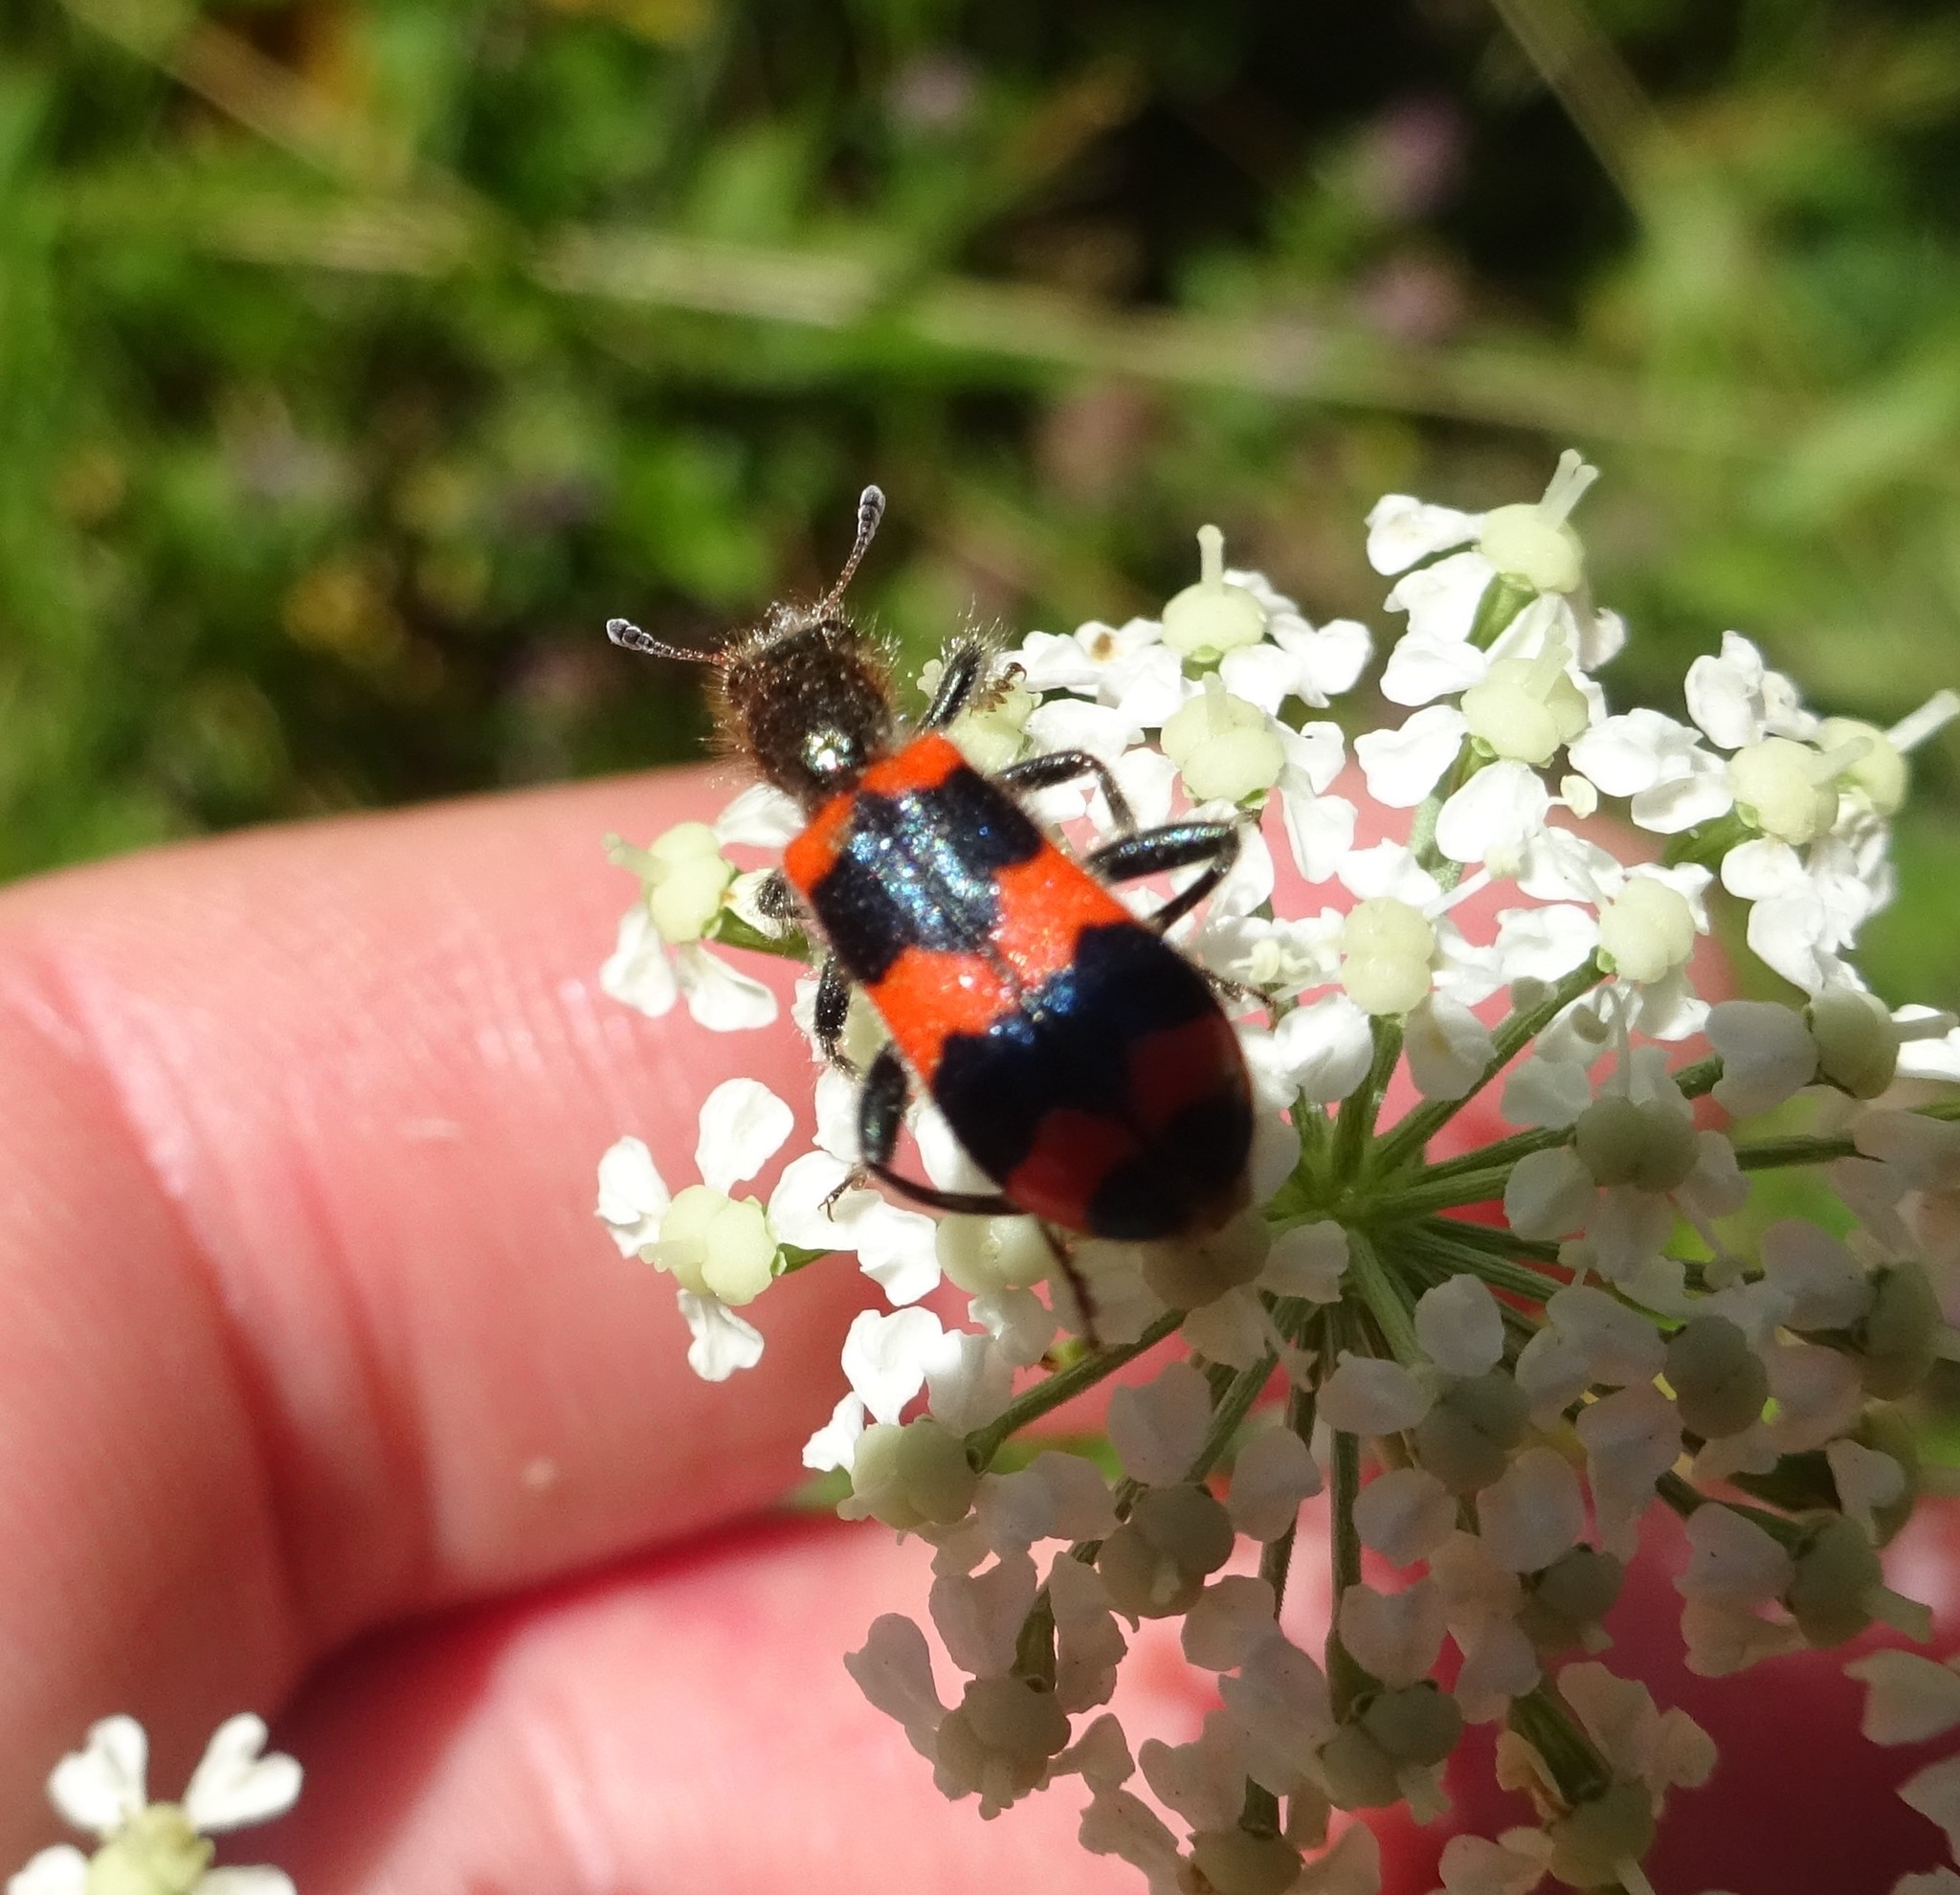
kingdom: Animalia
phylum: Arthropoda
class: Insecta
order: Coleoptera
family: Cleridae
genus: Trichodes
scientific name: Trichodes apiarius
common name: Bee-eating beetle
